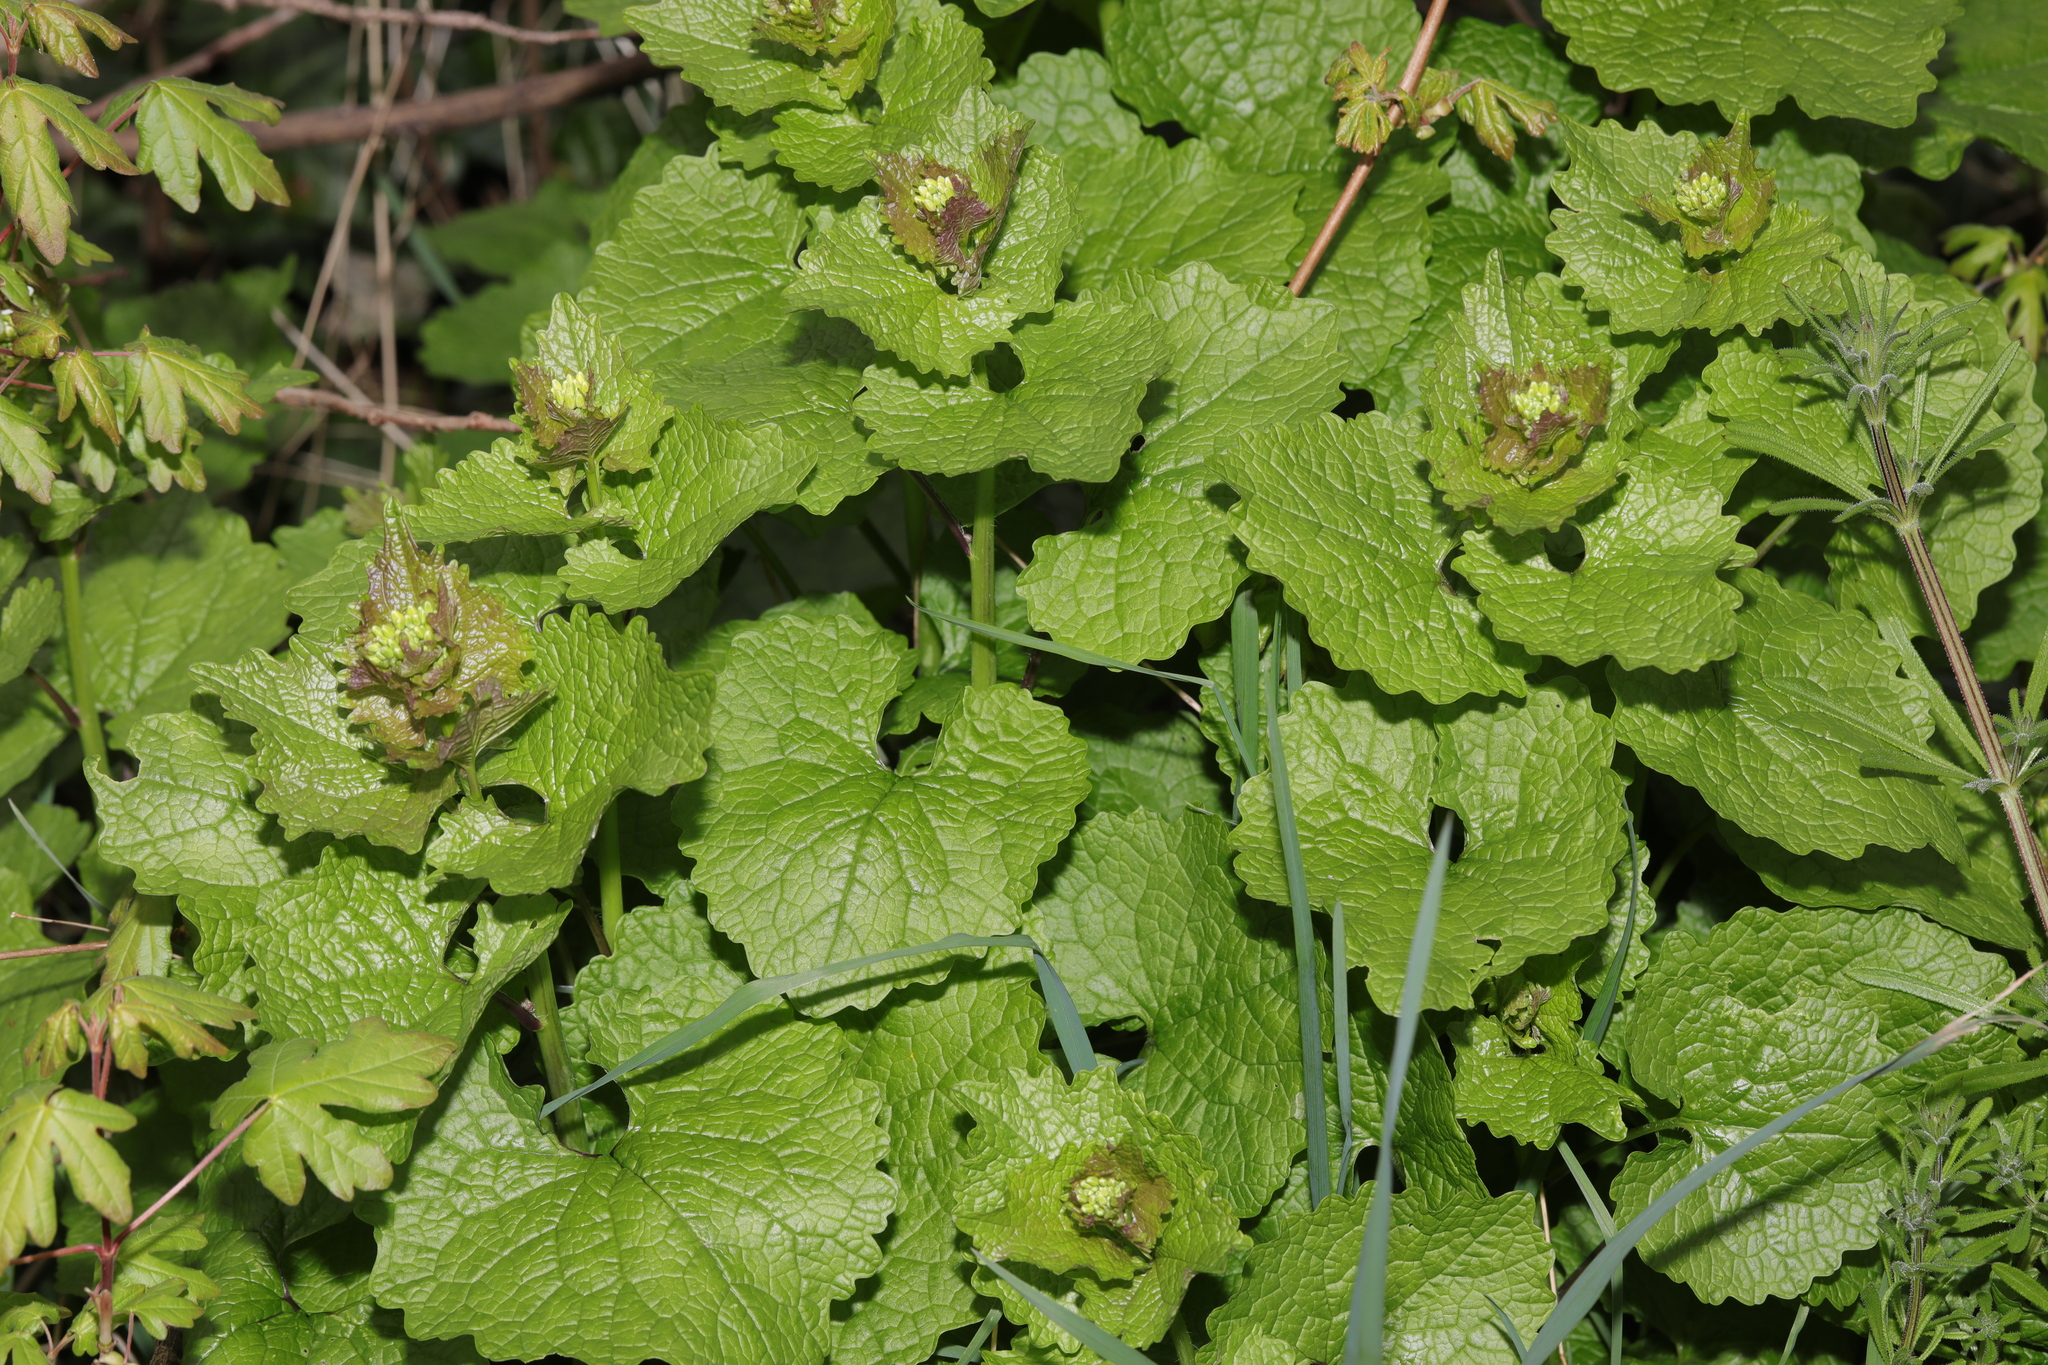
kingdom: Plantae
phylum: Tracheophyta
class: Magnoliopsida
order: Brassicales
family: Brassicaceae
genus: Alliaria
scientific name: Alliaria petiolata
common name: Garlic mustard
